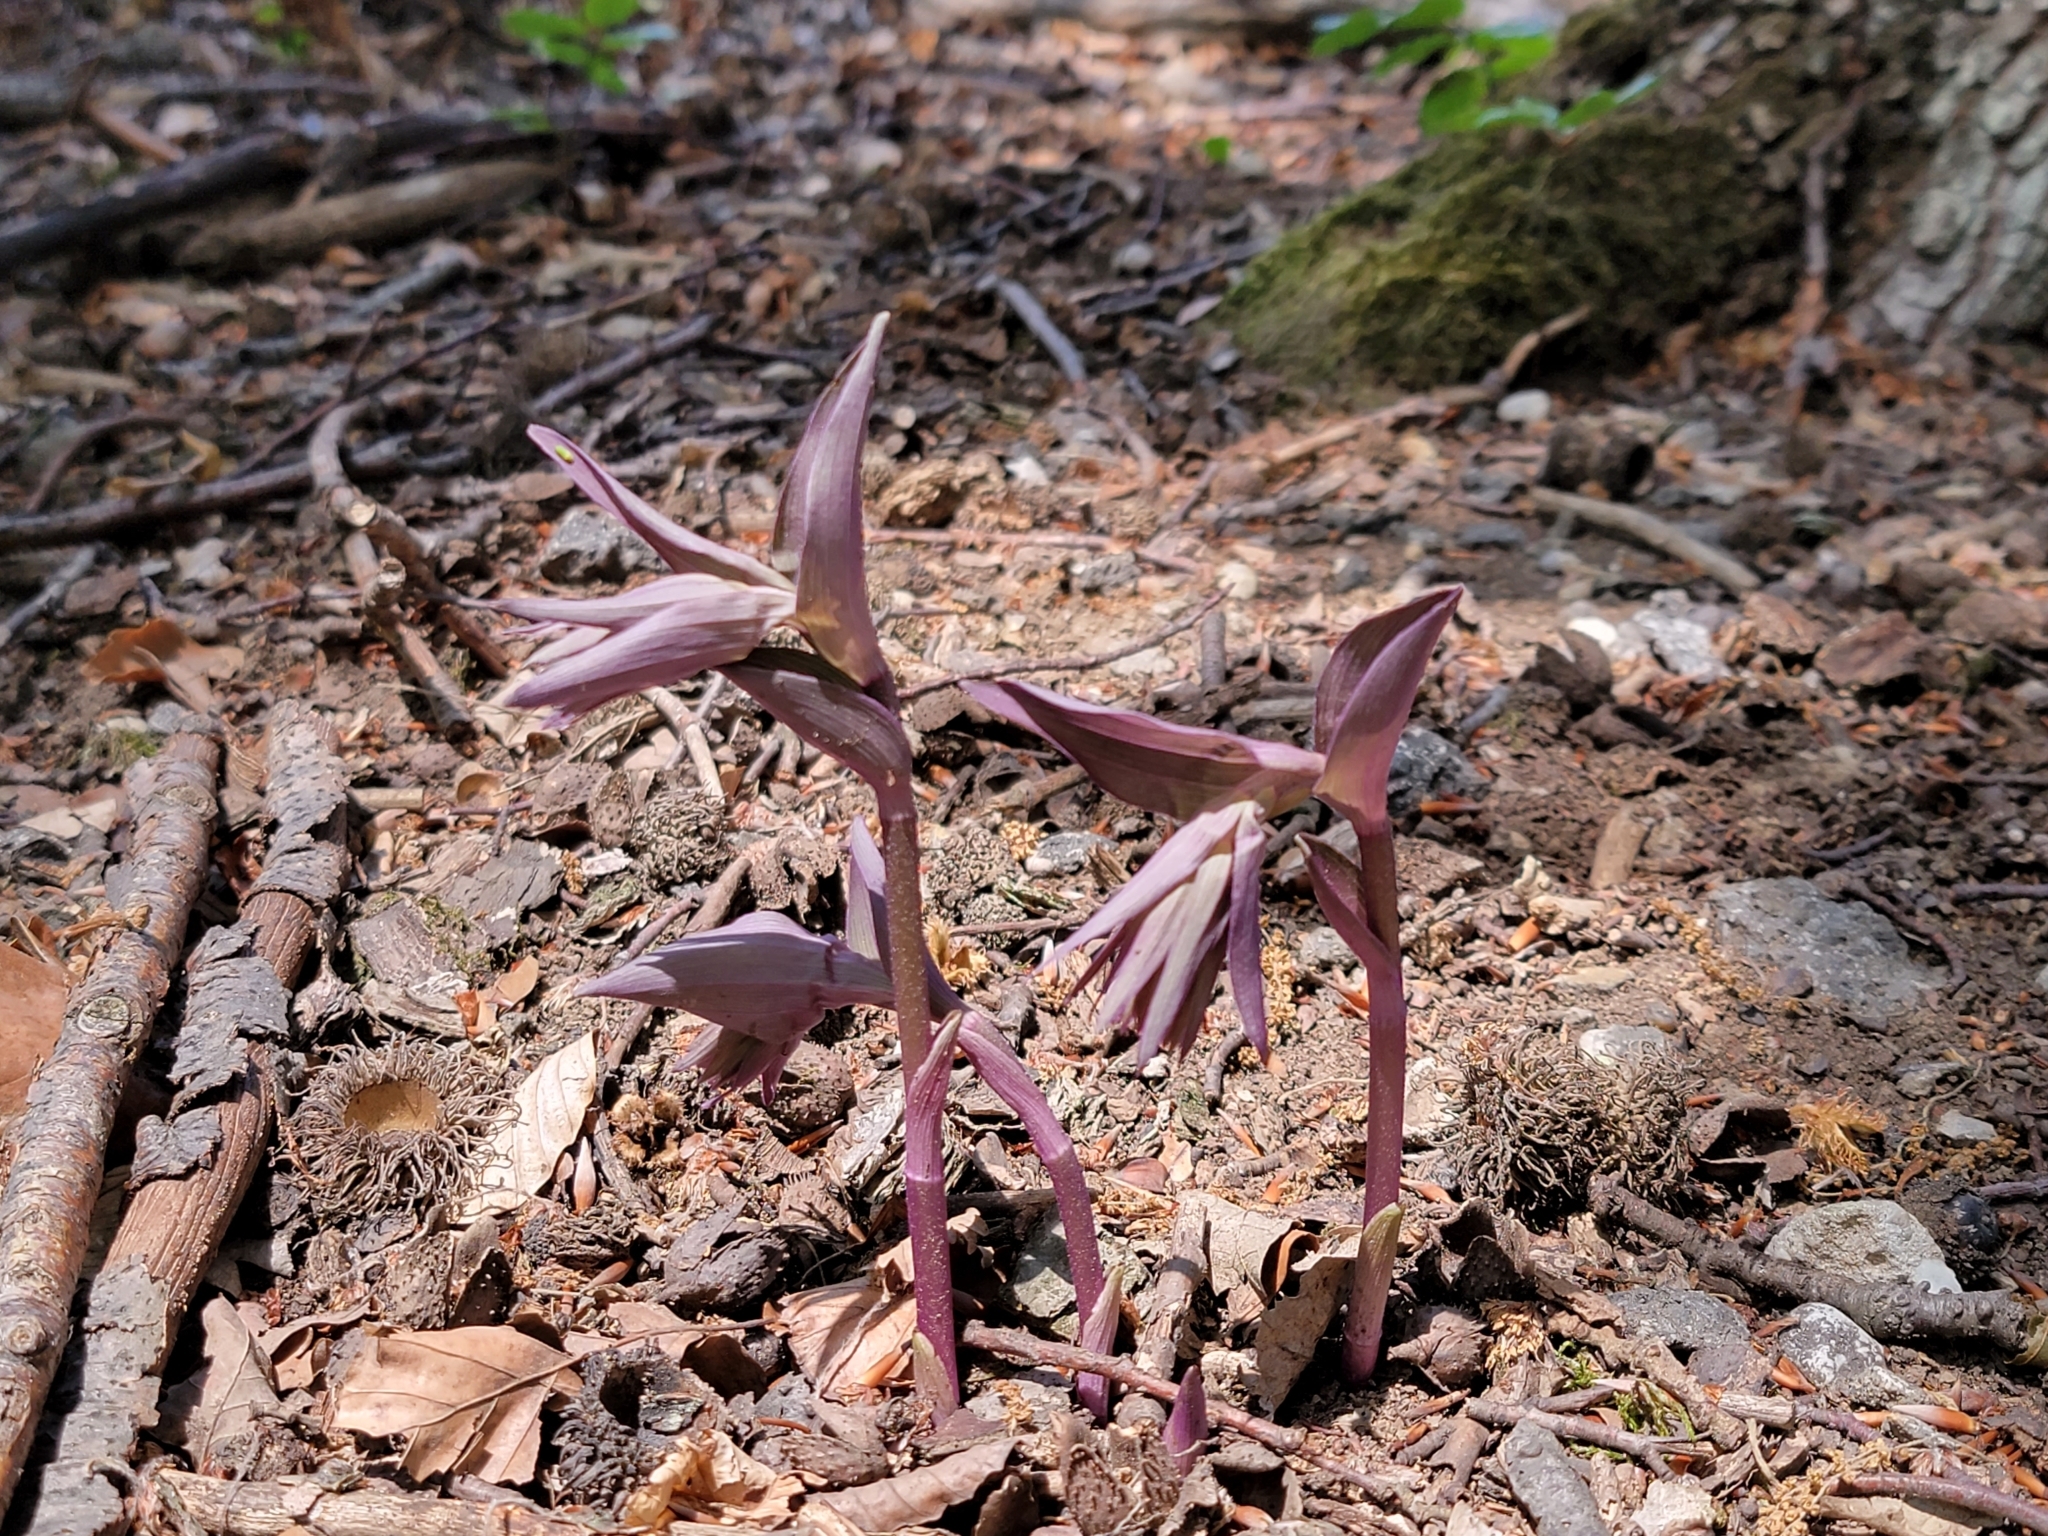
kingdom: Plantae
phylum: Tracheophyta
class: Liliopsida
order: Asparagales
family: Orchidaceae
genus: Epipactis
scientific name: Epipactis purpurata
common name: Violet helleborine
